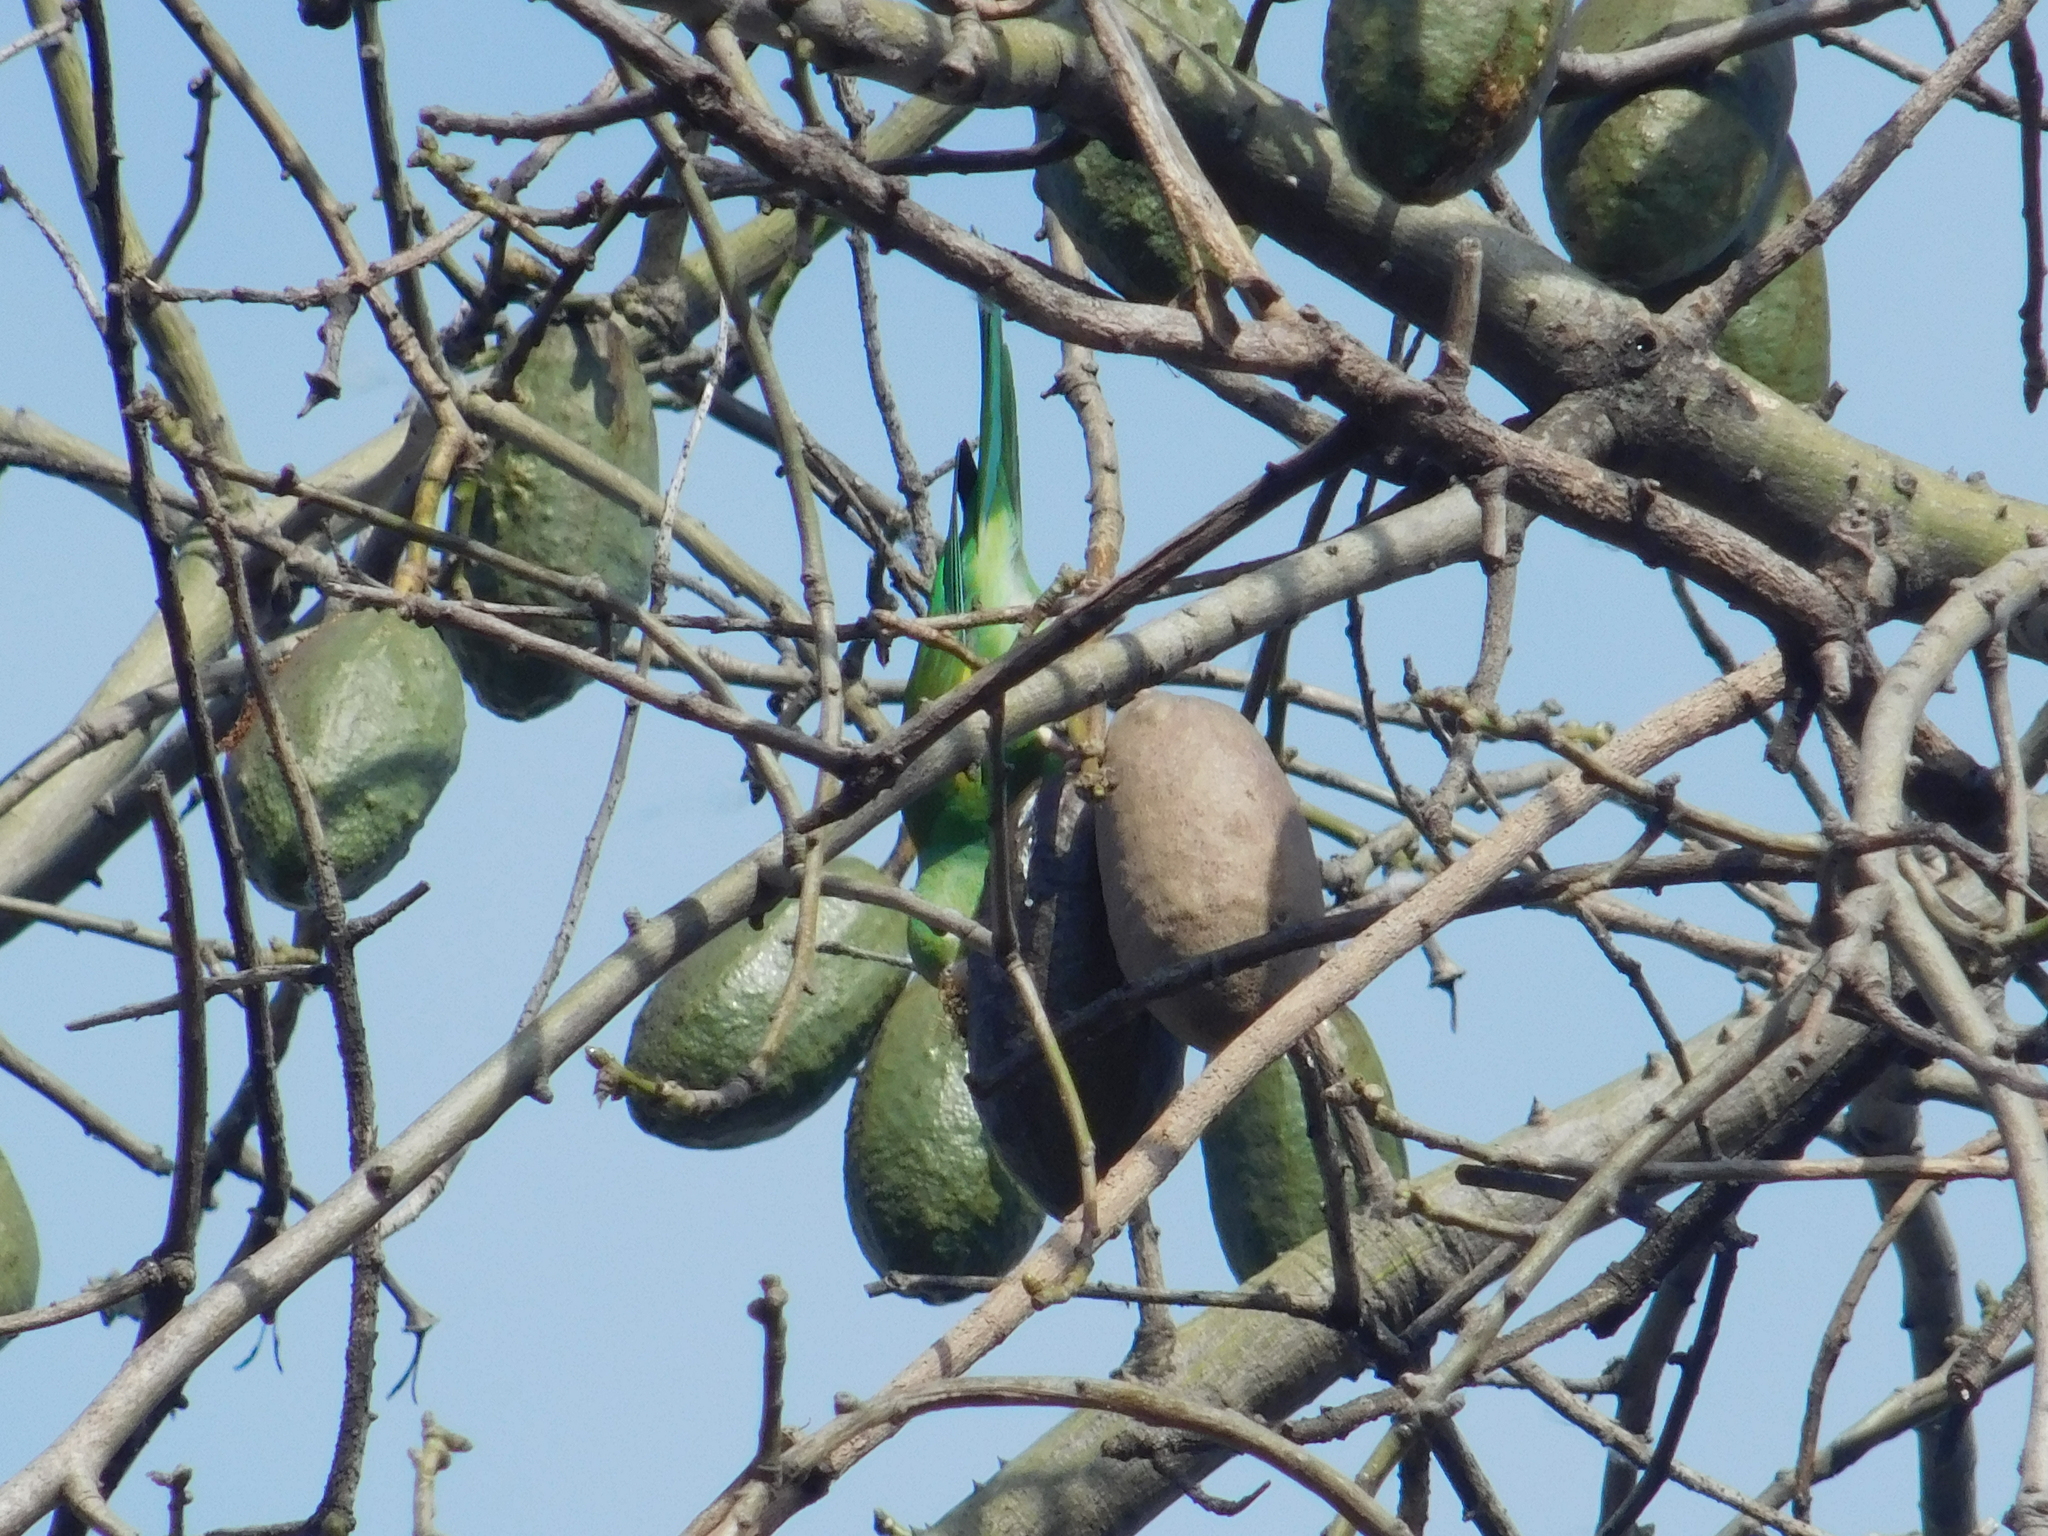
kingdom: Animalia
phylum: Chordata
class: Aves
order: Psittaciformes
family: Psittacidae
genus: Brotogeris
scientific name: Brotogeris chiriri
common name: Yellow-chevroned parakeet
